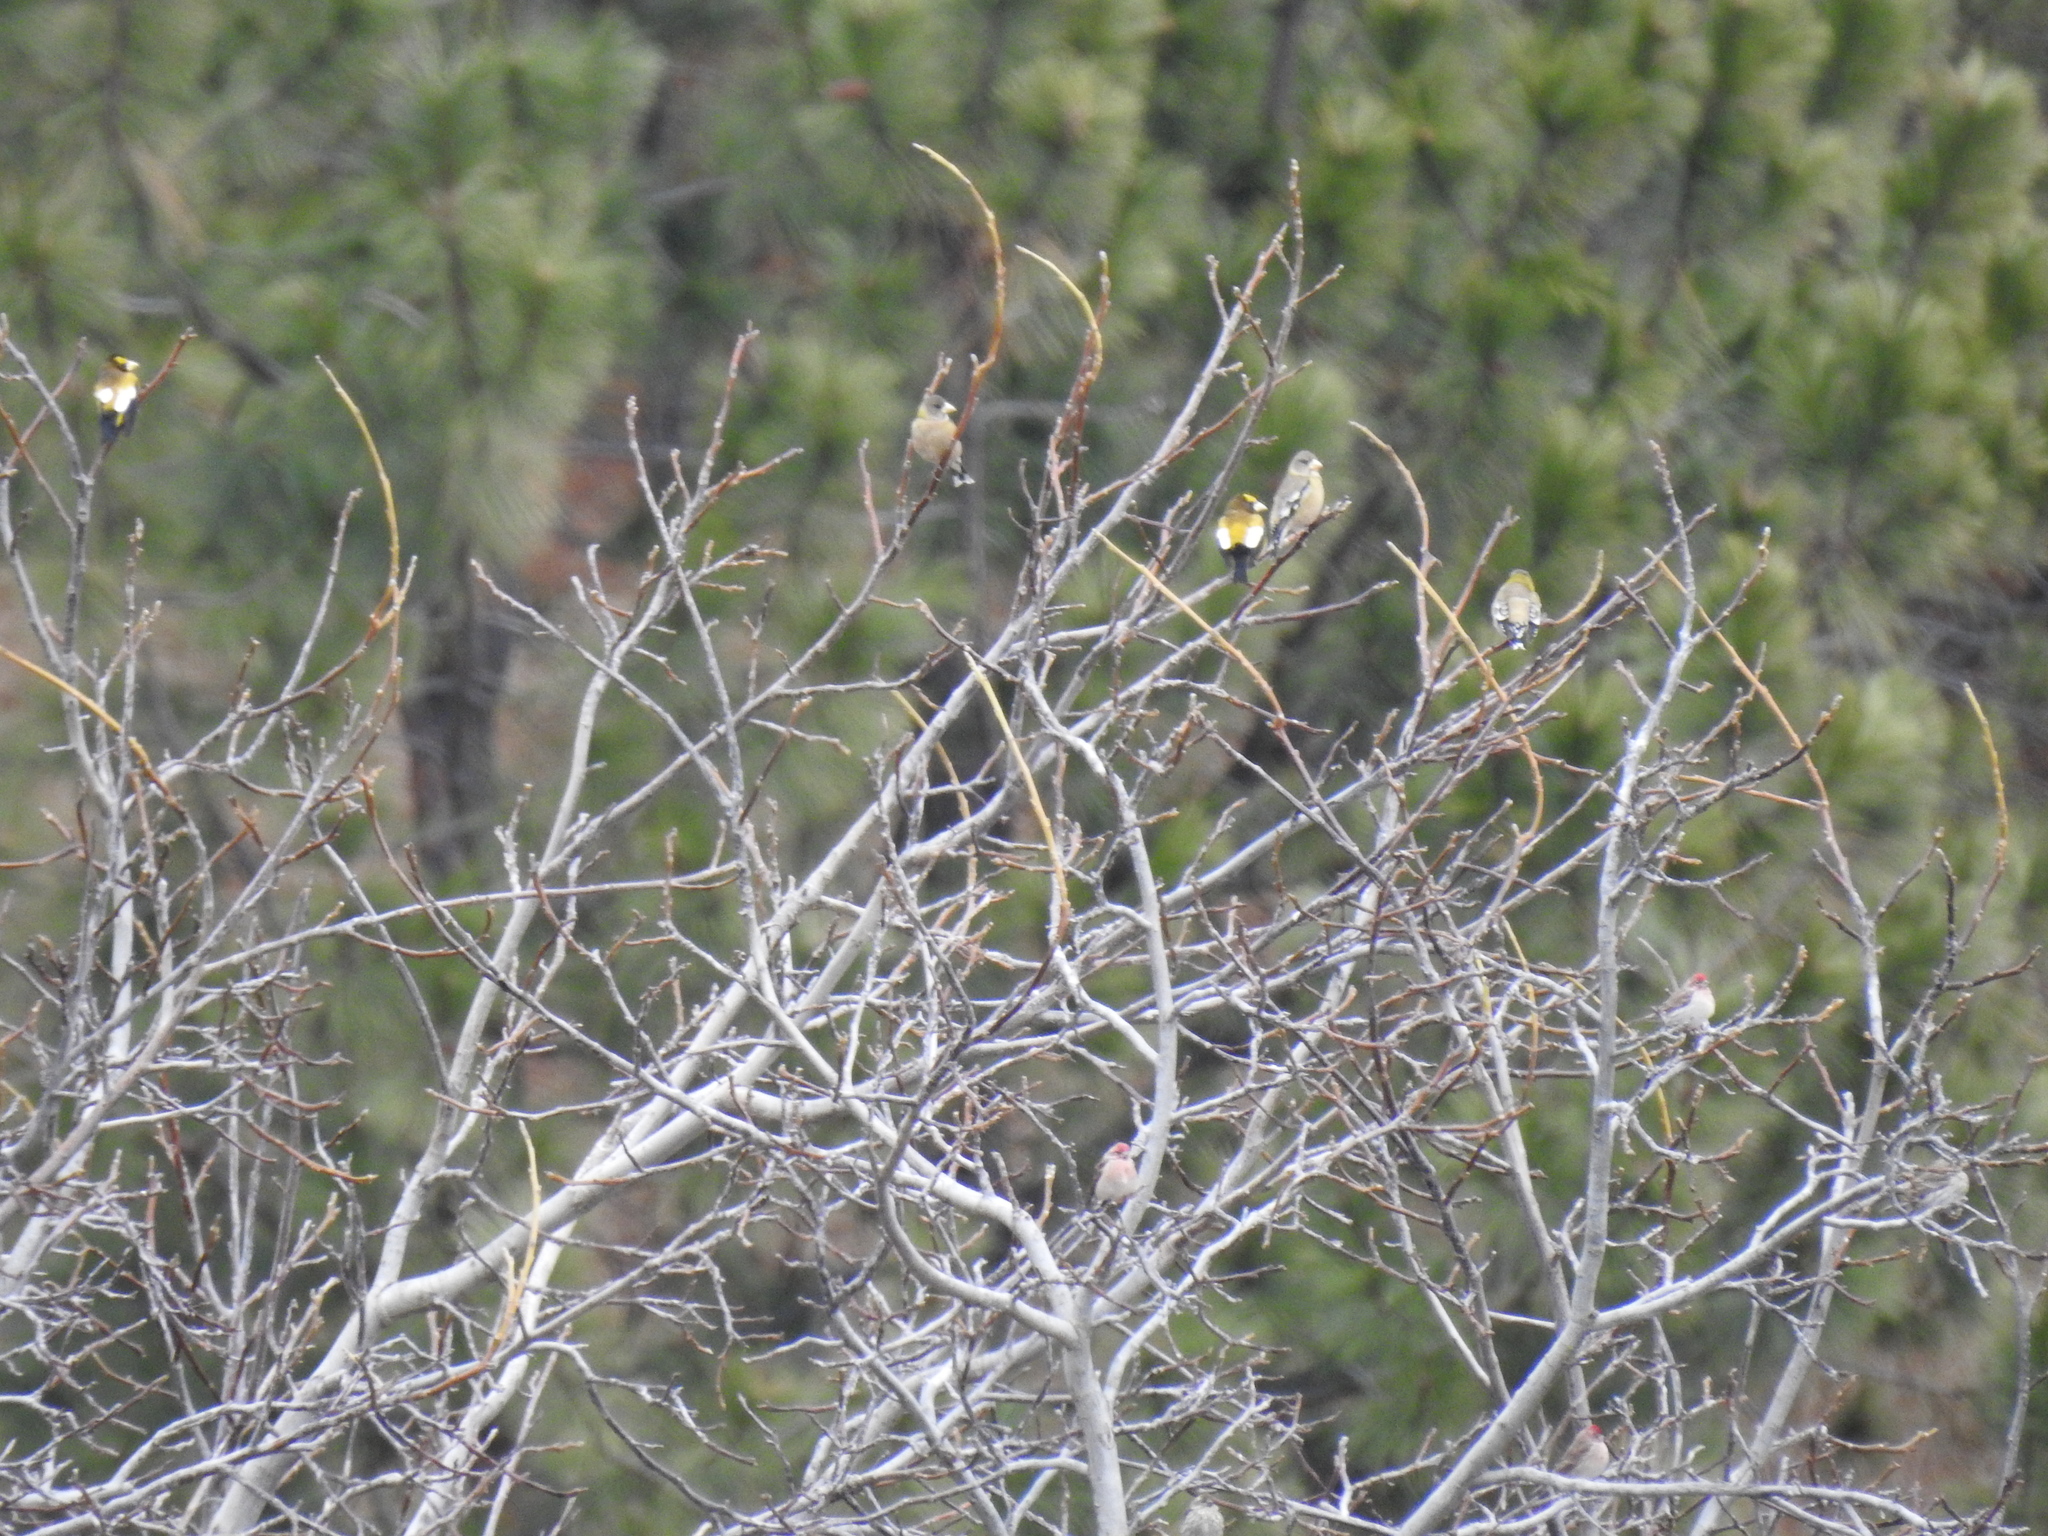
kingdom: Animalia
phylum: Chordata
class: Aves
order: Passeriformes
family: Fringillidae
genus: Hesperiphona
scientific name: Hesperiphona vespertina
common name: Evening grosbeak
